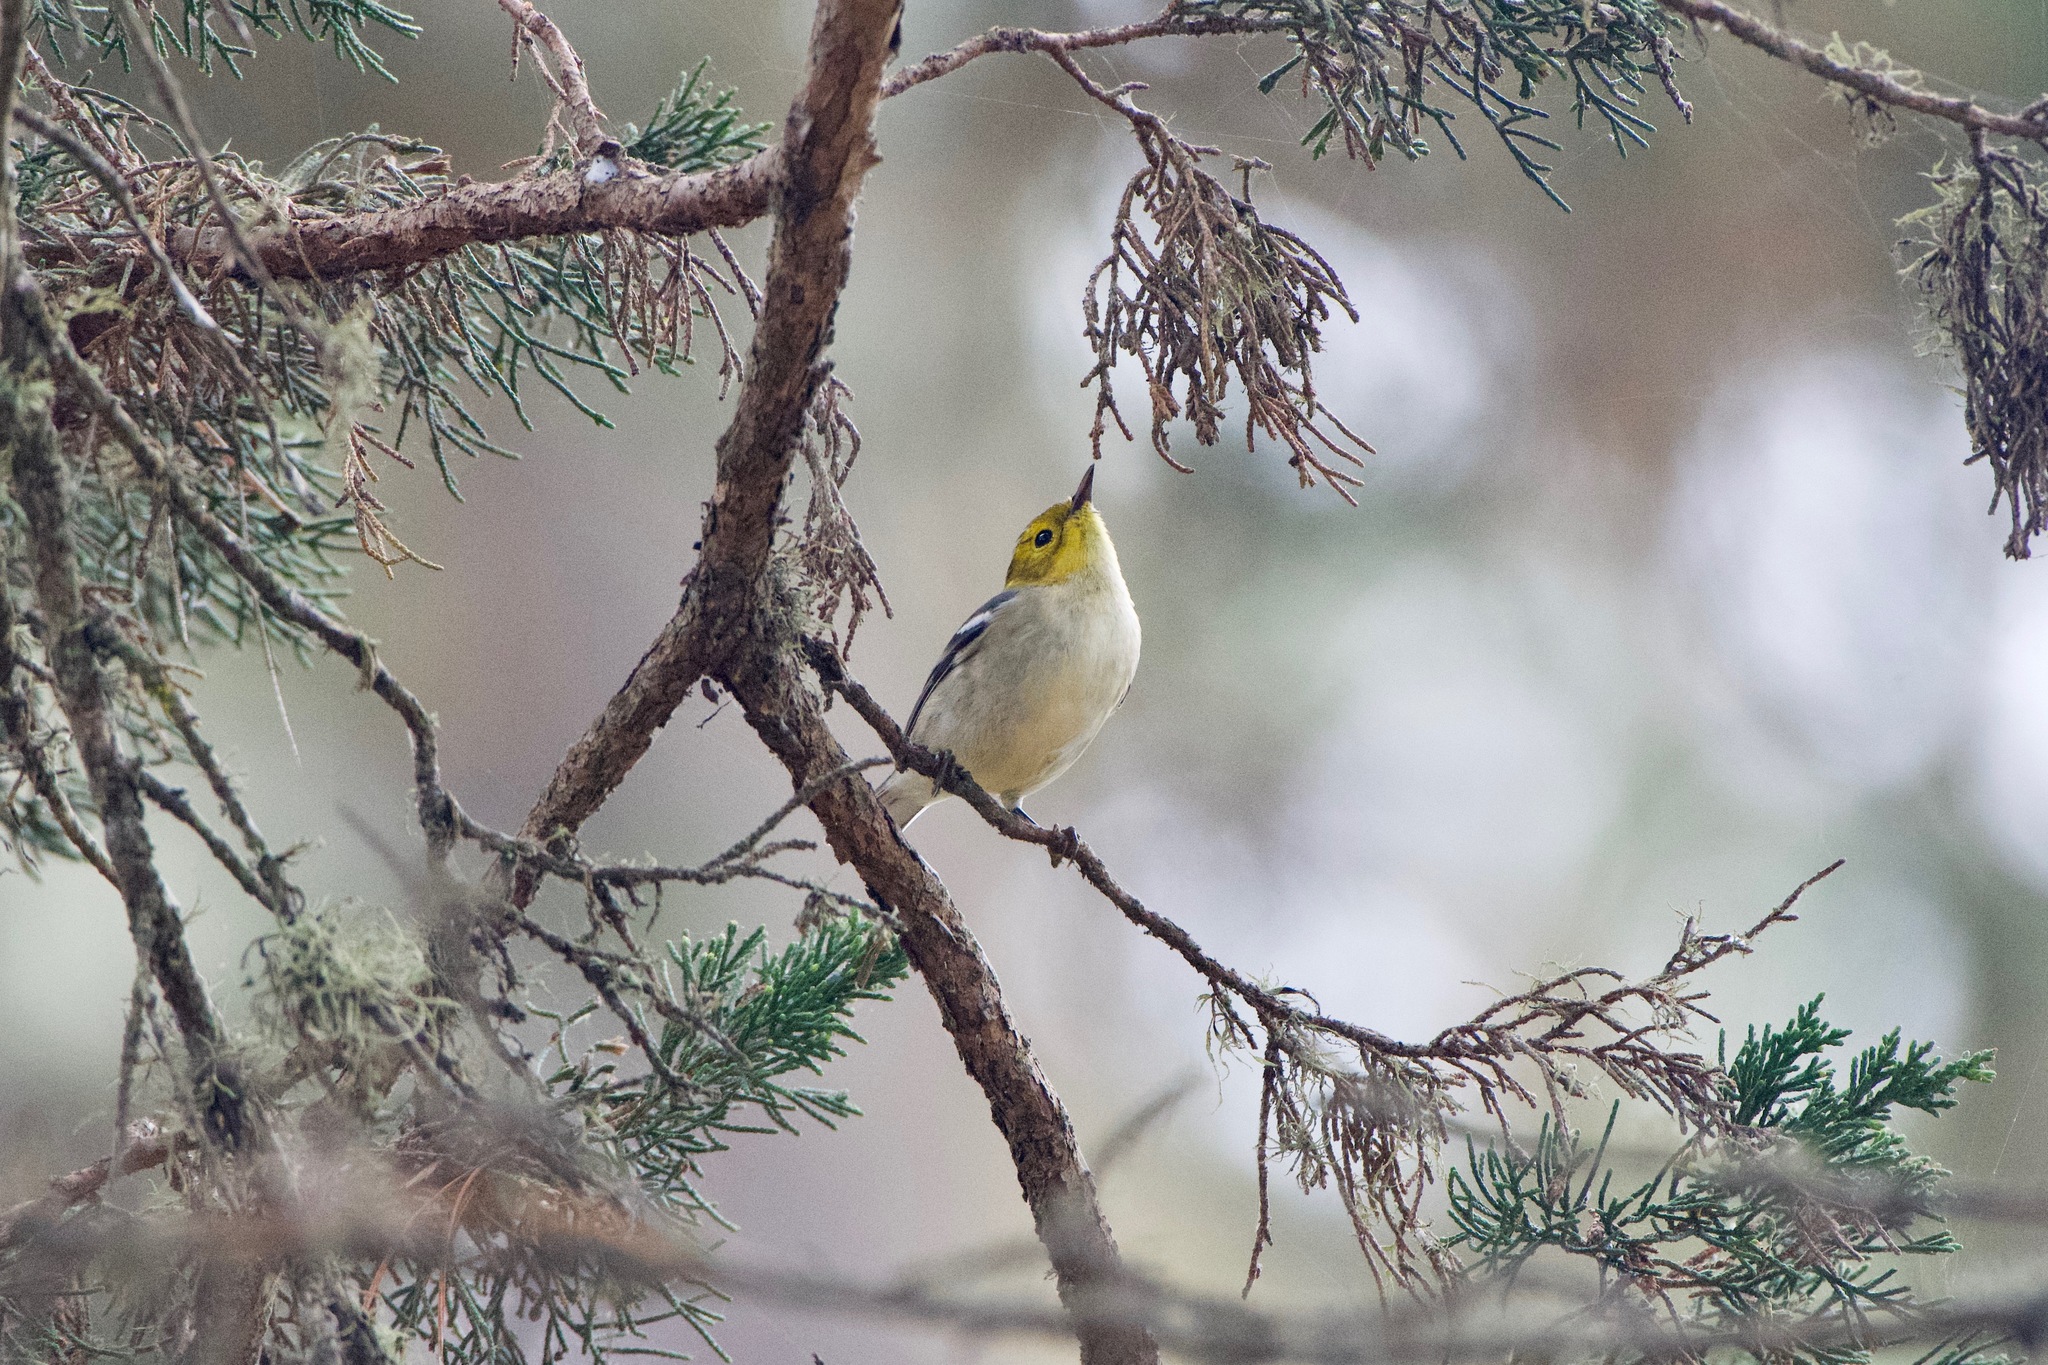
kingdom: Animalia
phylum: Chordata
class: Aves
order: Passeriformes
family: Parulidae
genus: Setophaga
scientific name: Setophaga occidentalis
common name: Hermit warbler
